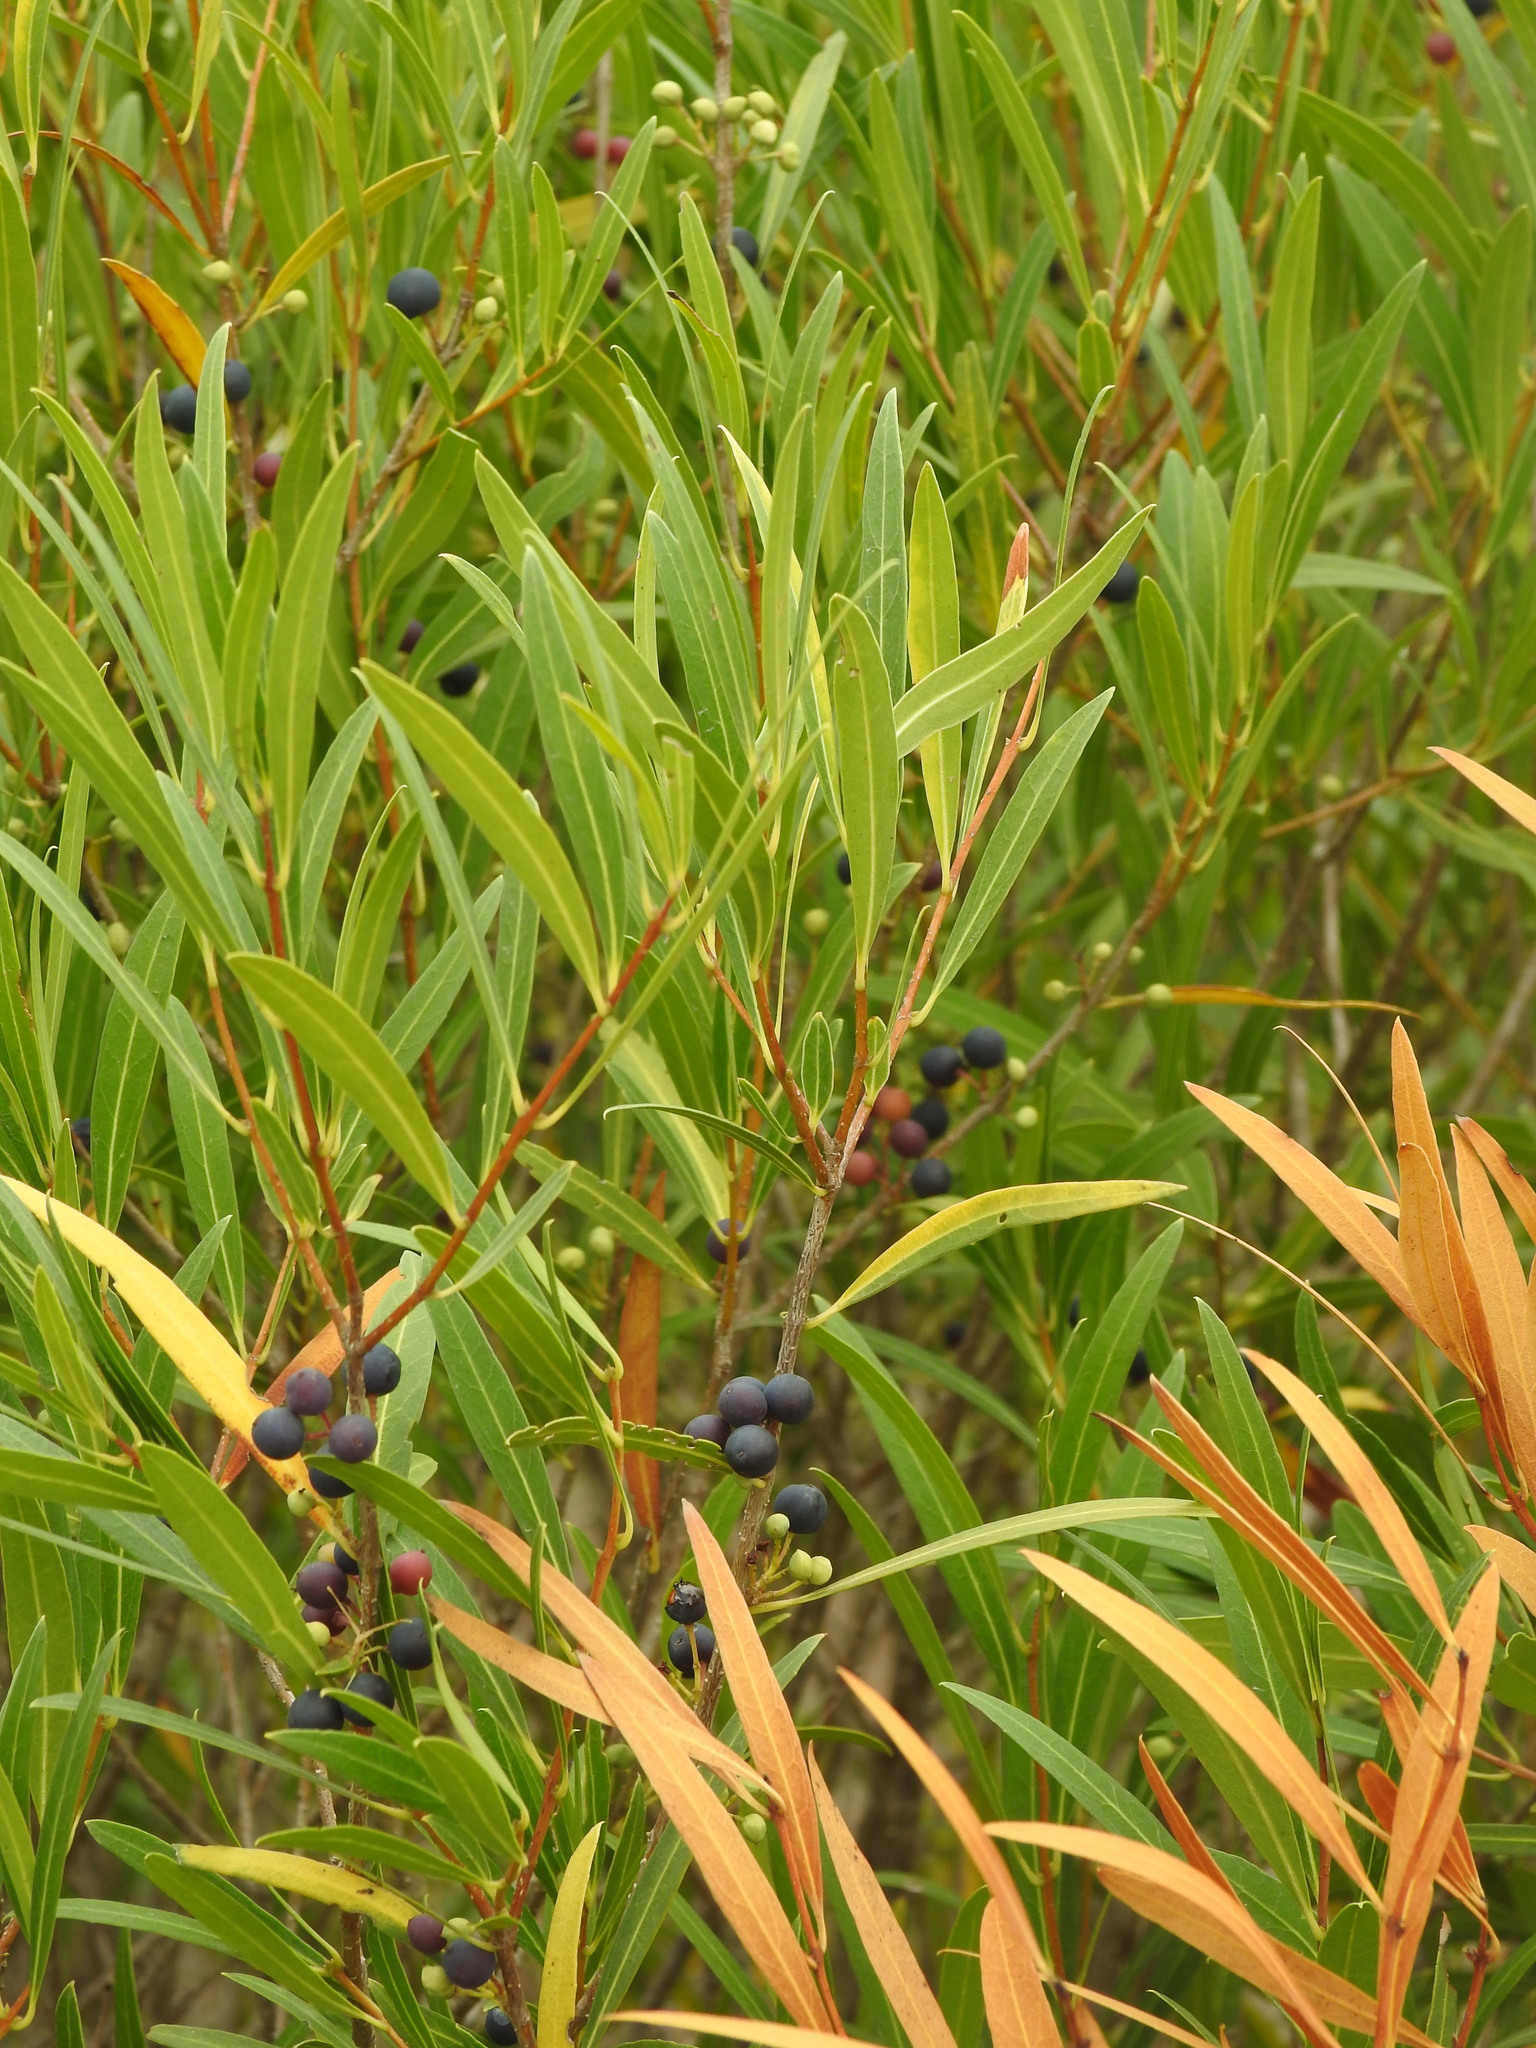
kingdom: Plantae
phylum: Tracheophyta
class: Magnoliopsida
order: Lamiales
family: Oleaceae
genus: Phillyrea
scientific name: Phillyrea angustifolia
